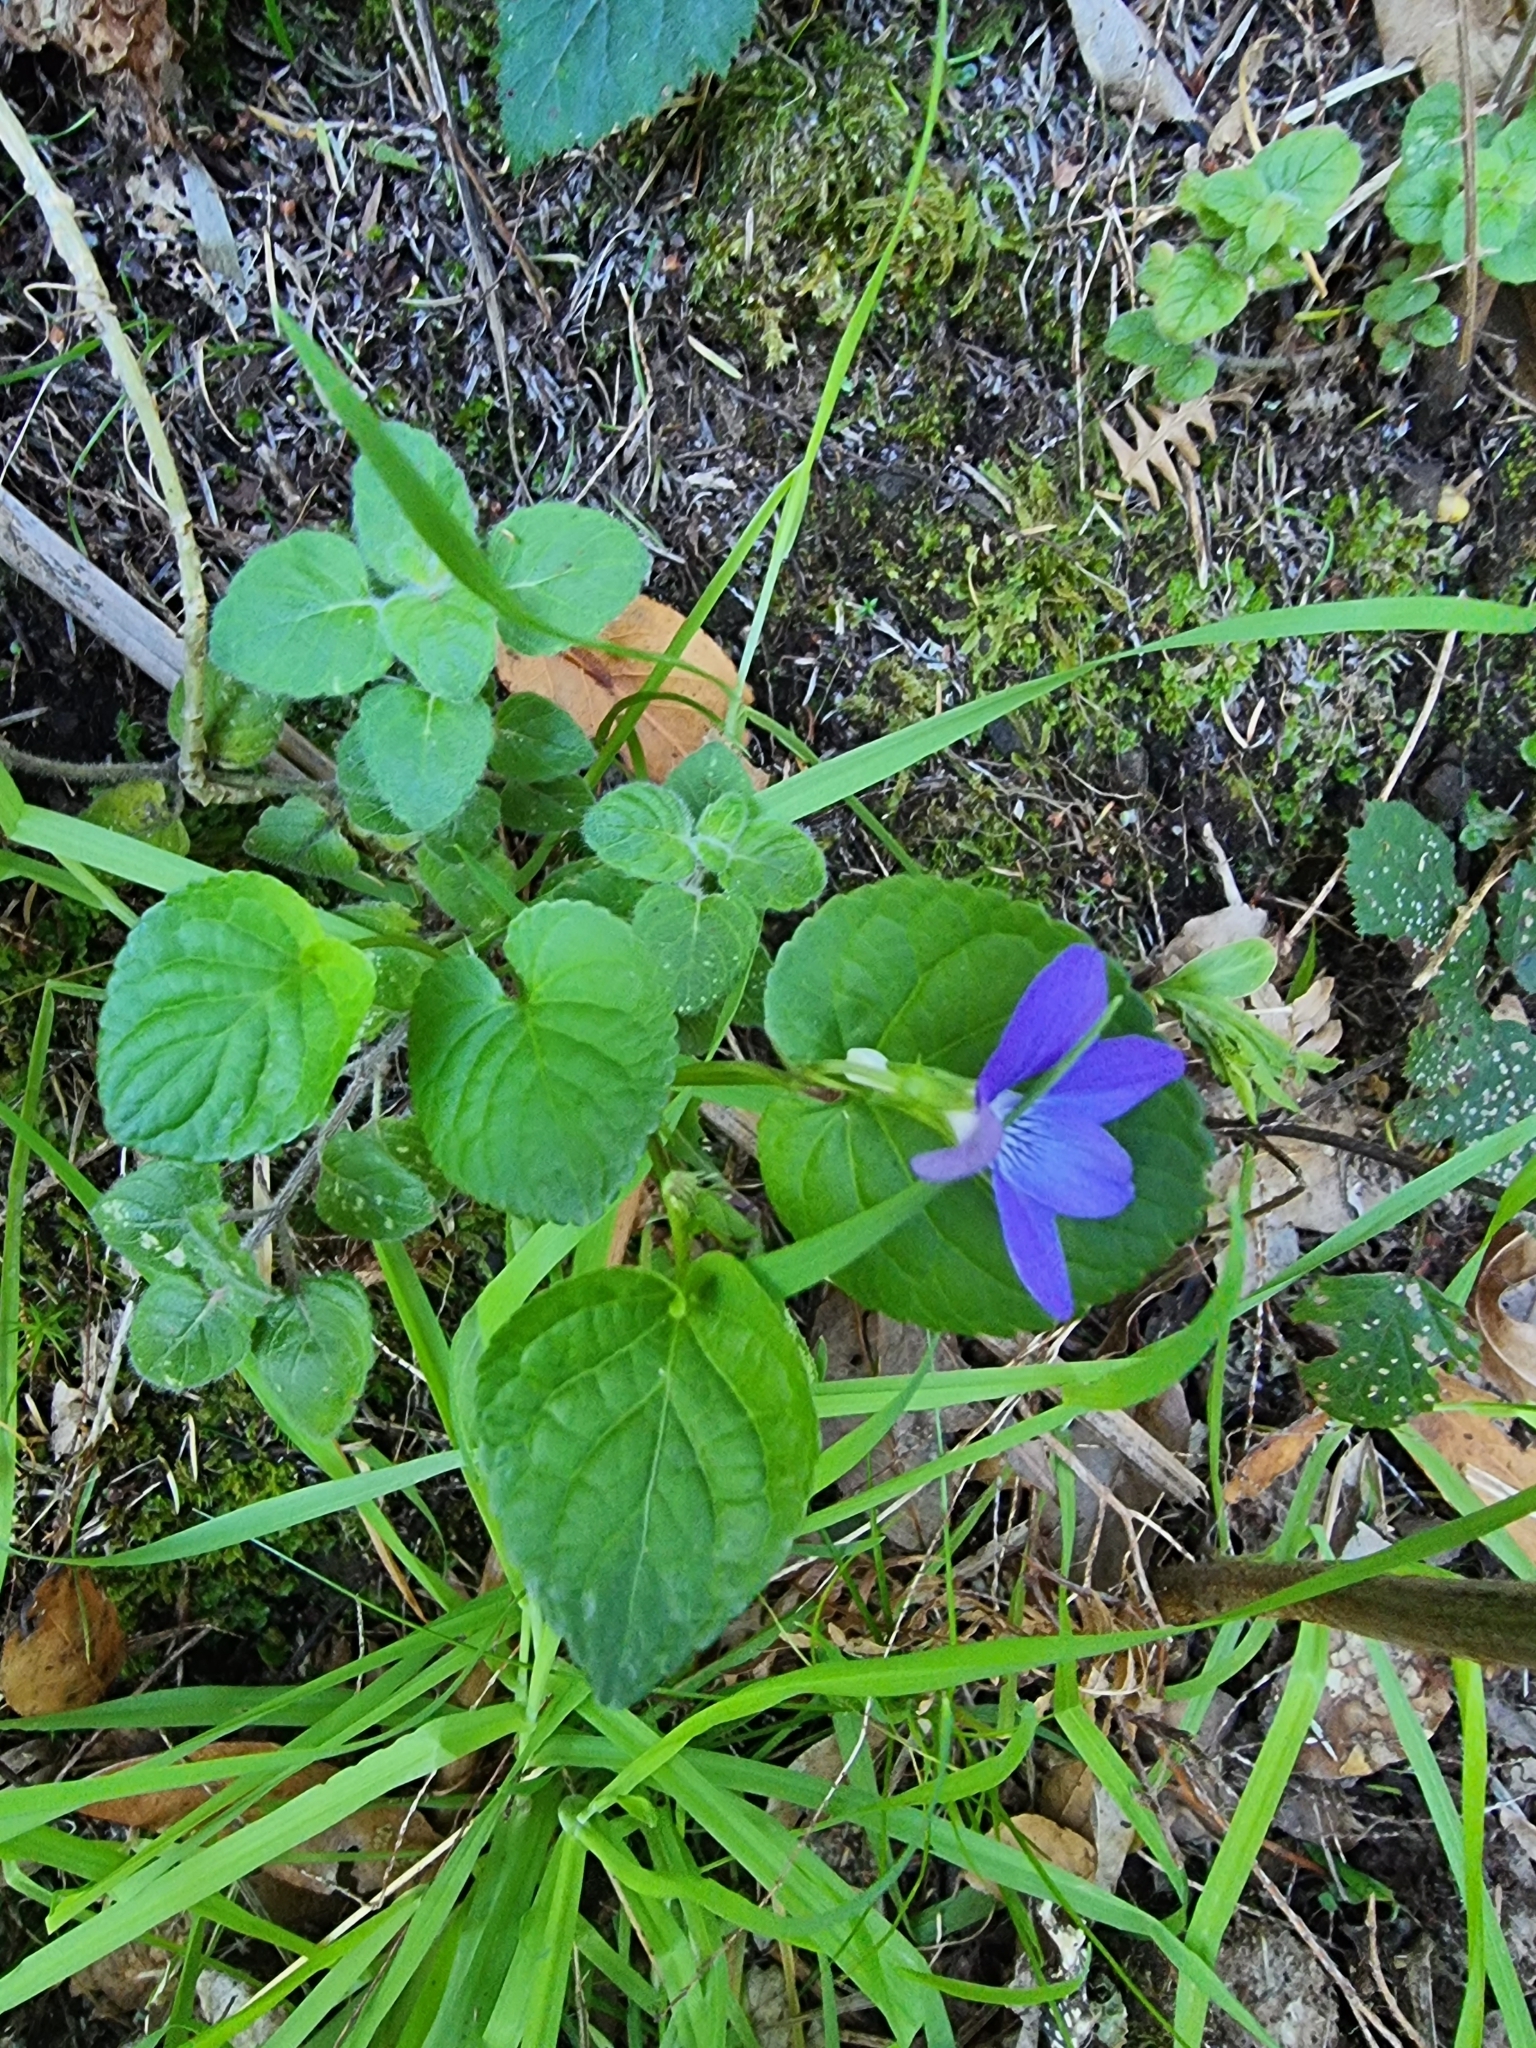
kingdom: Plantae
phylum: Tracheophyta
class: Magnoliopsida
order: Malpighiales
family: Violaceae
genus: Viola
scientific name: Viola riviniana
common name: Common dog-violet
